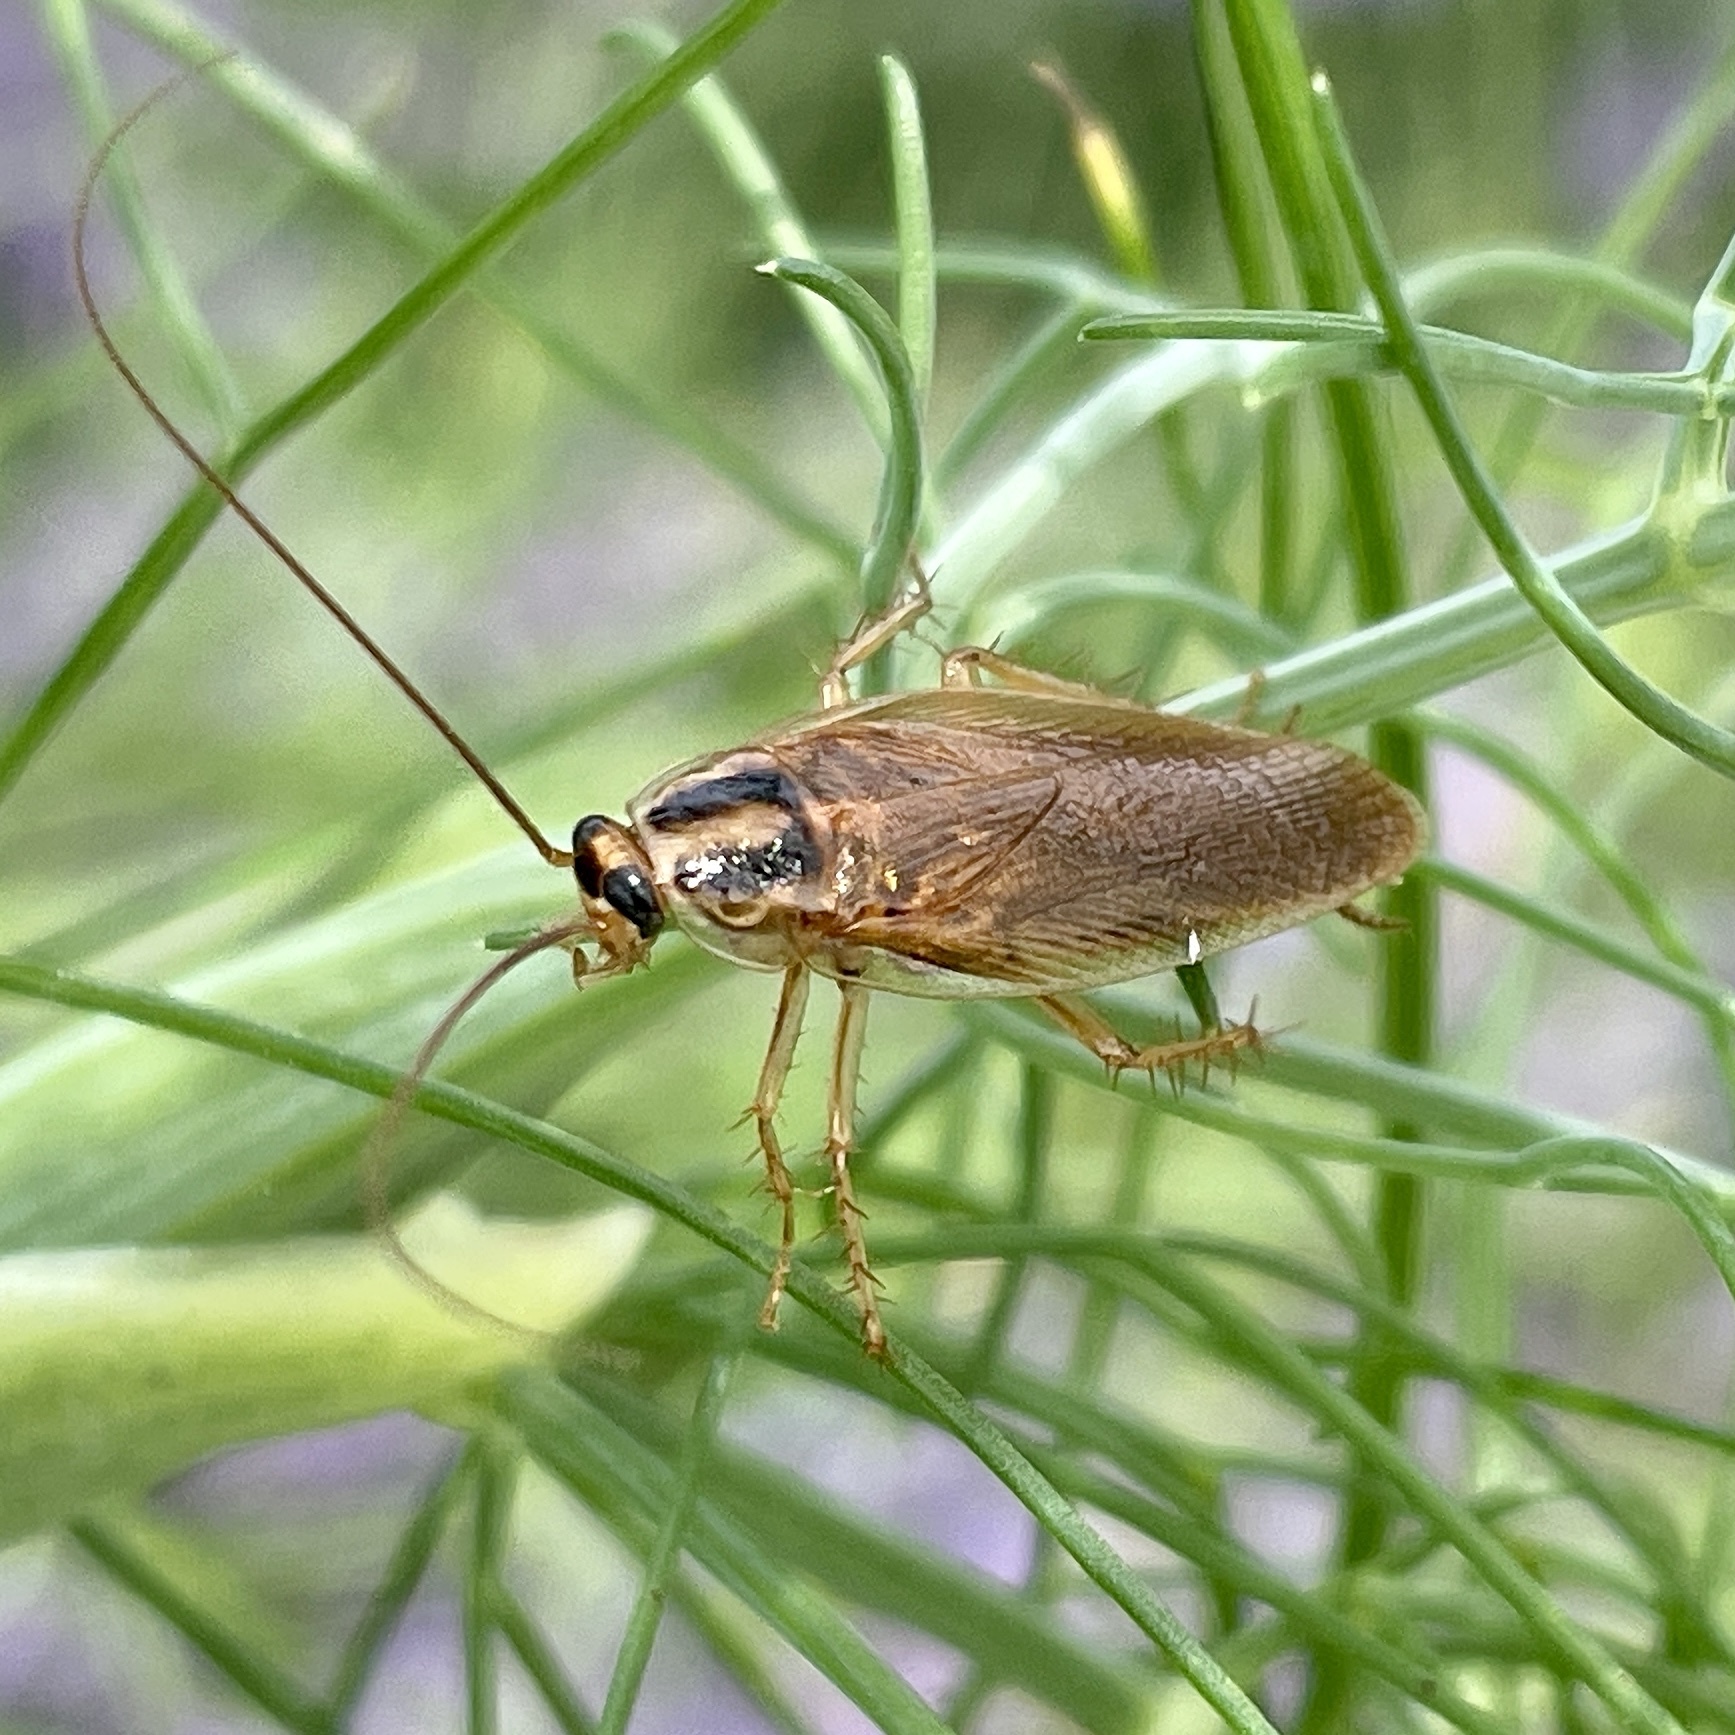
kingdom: Animalia
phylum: Arthropoda
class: Insecta
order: Blattodea
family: Ectobiidae
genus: Blattella
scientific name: Blattella nipponica
